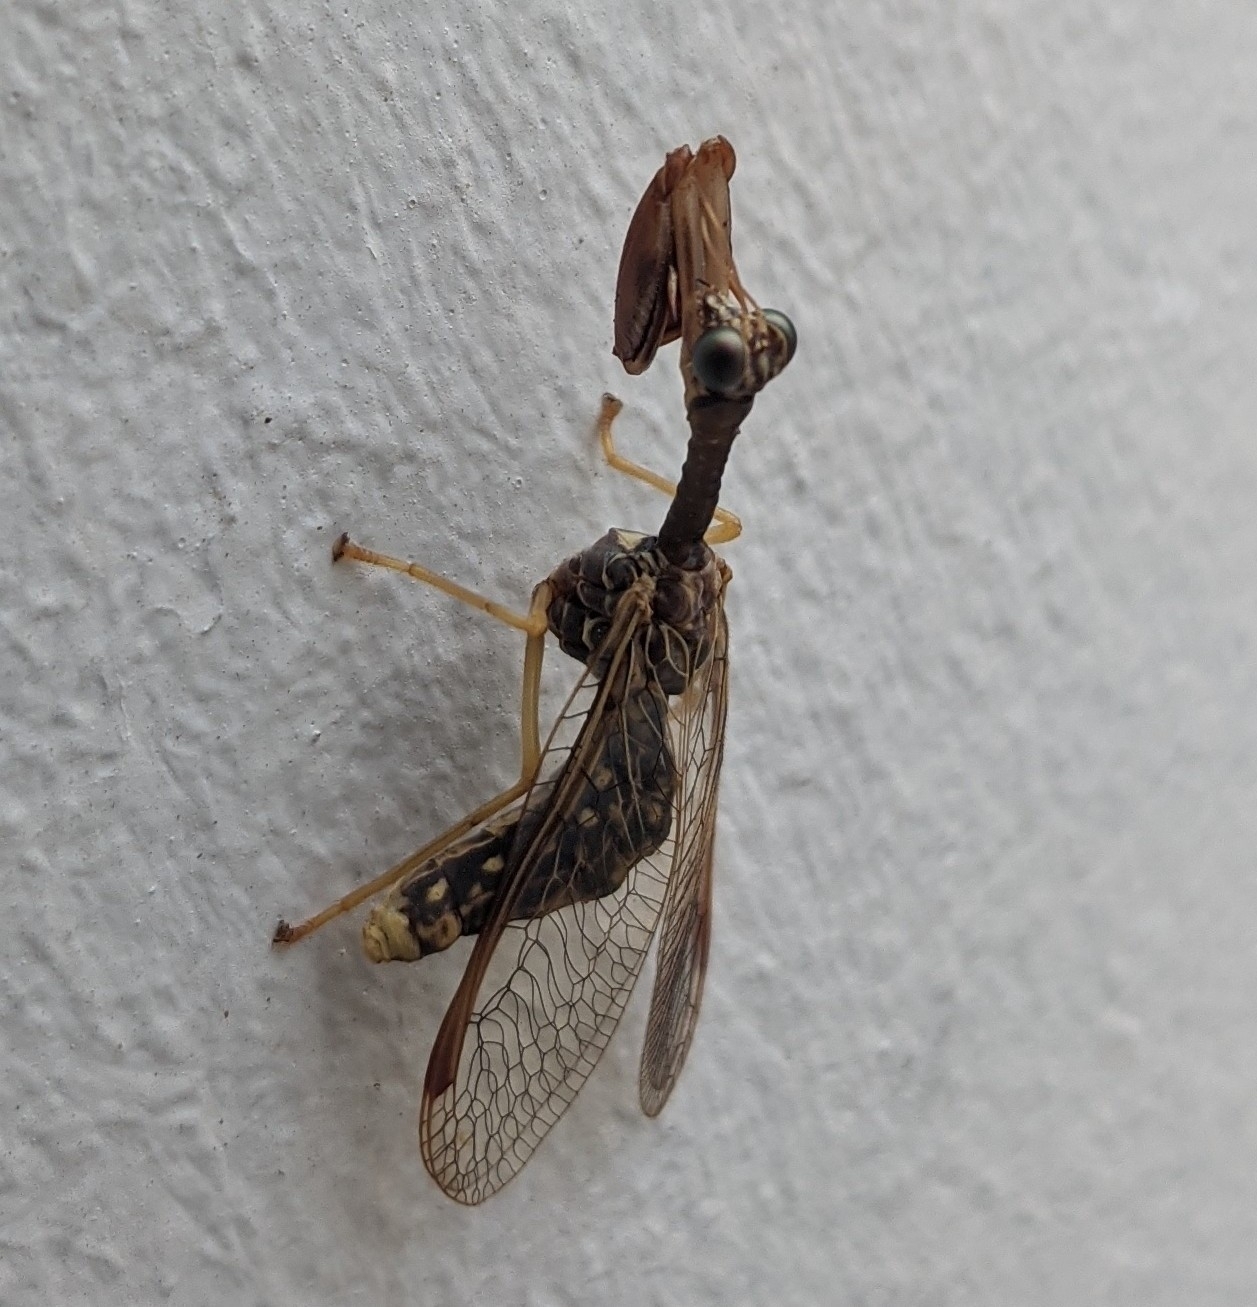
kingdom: Animalia
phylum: Arthropoda
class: Insecta
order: Neuroptera
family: Mantispidae
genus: Dicromantispa
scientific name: Dicromantispa sayi
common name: Say's mantidfly
